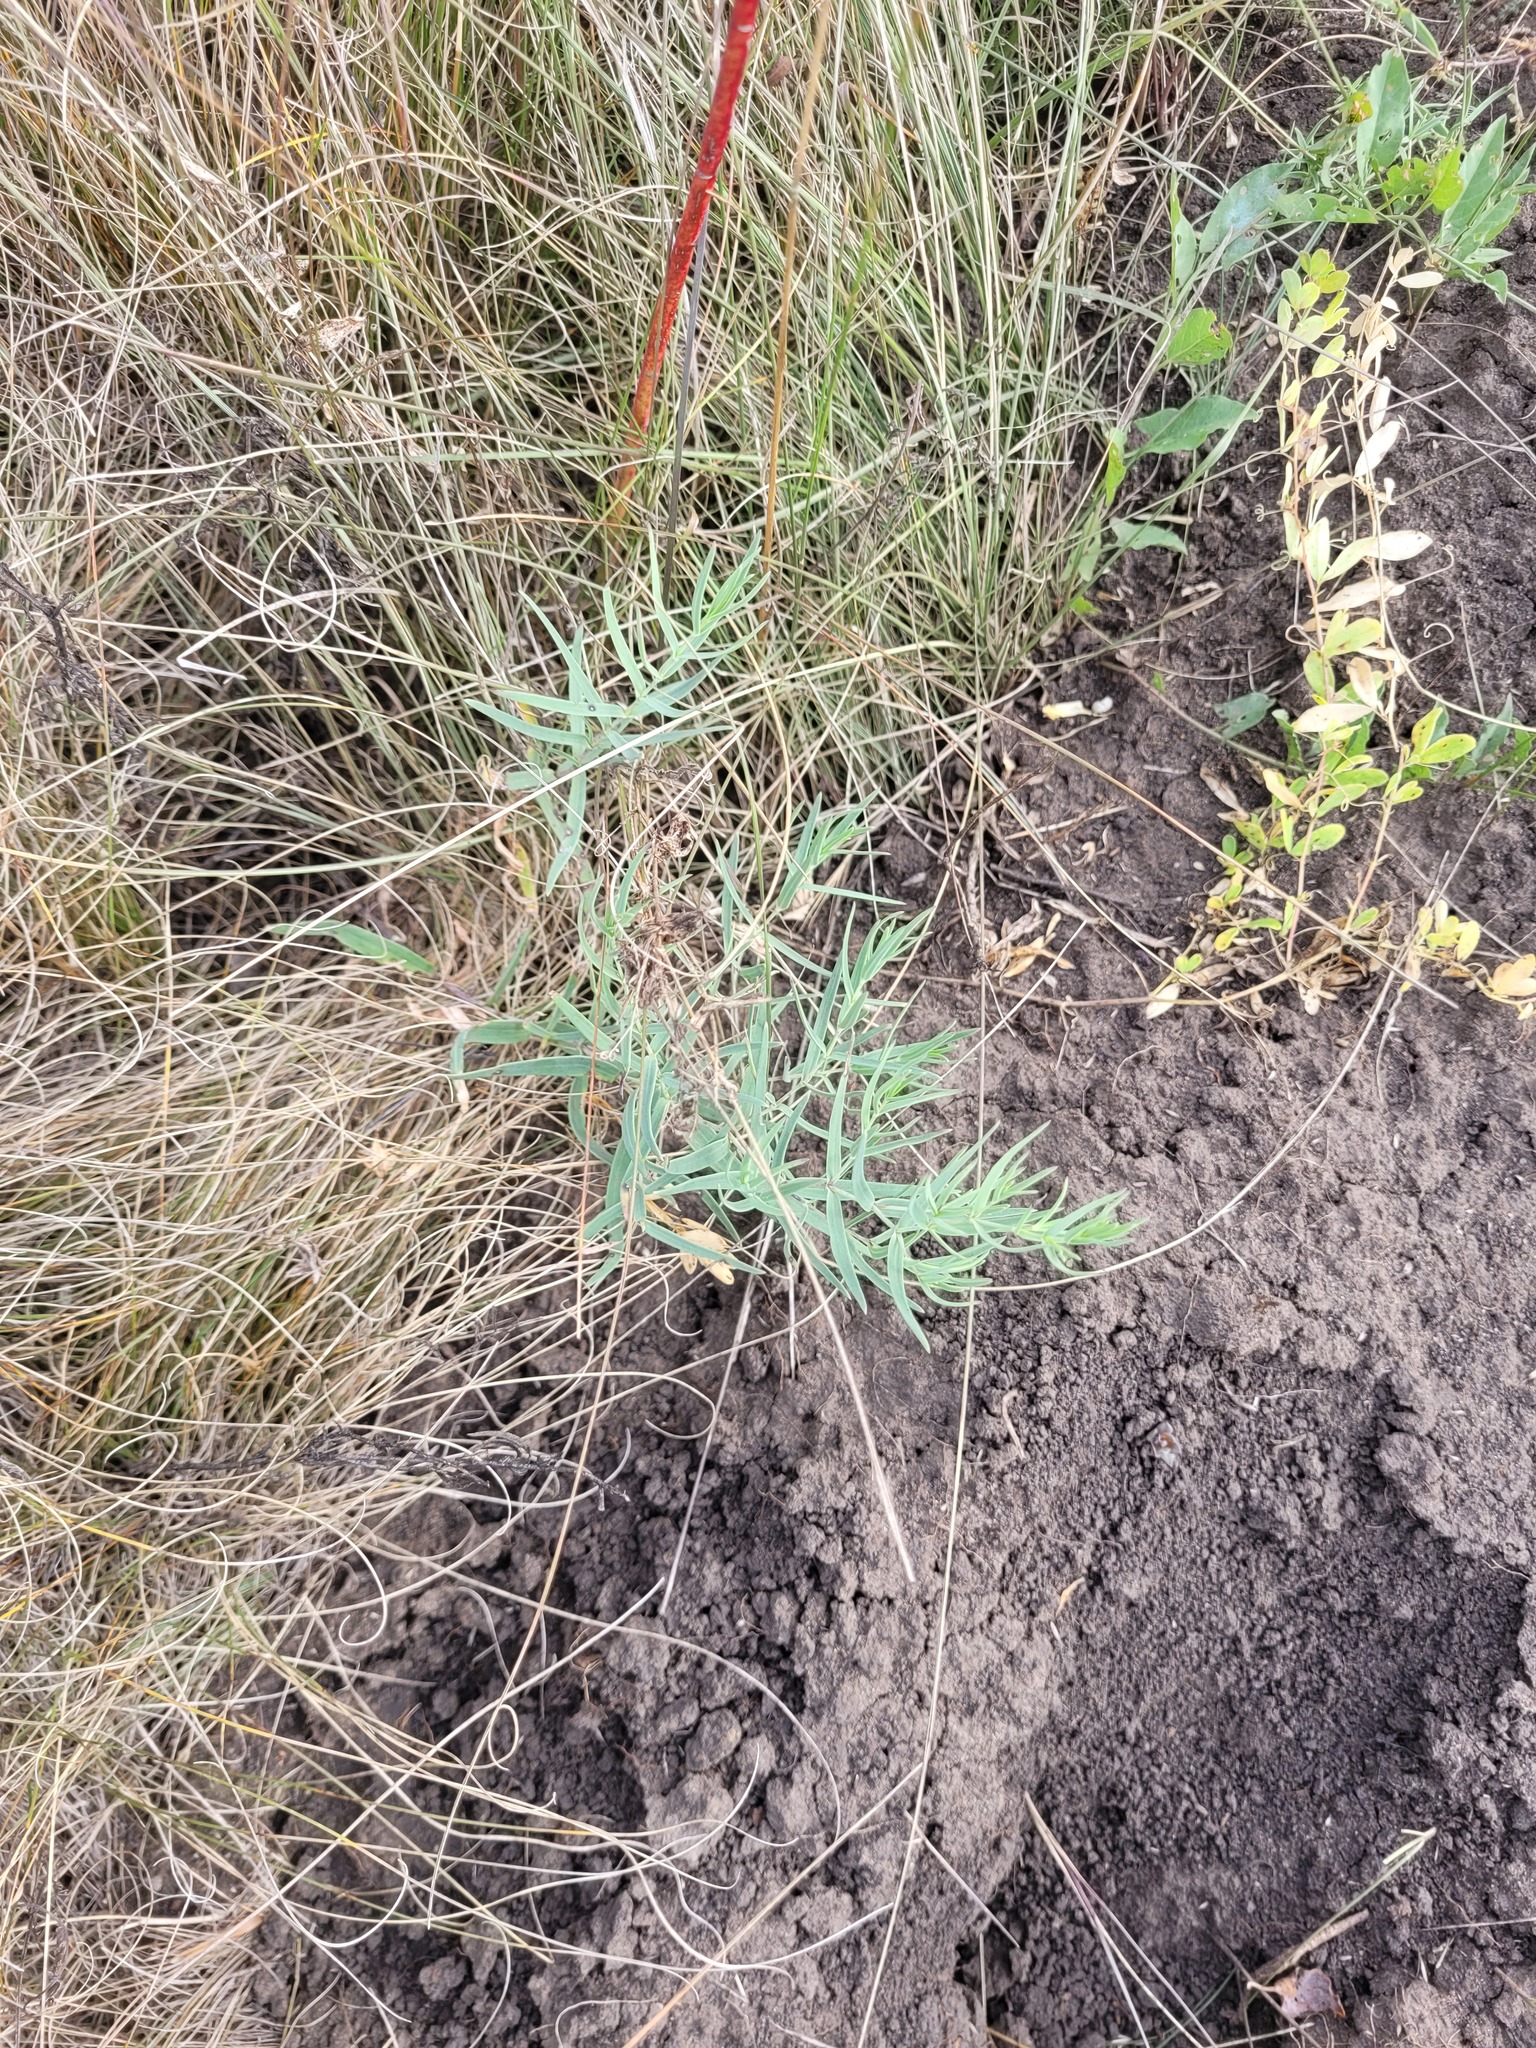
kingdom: Plantae
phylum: Tracheophyta
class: Magnoliopsida
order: Caryophyllales
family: Caryophyllaceae
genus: Gypsophila
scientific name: Gypsophila paniculata
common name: Baby's-breath
